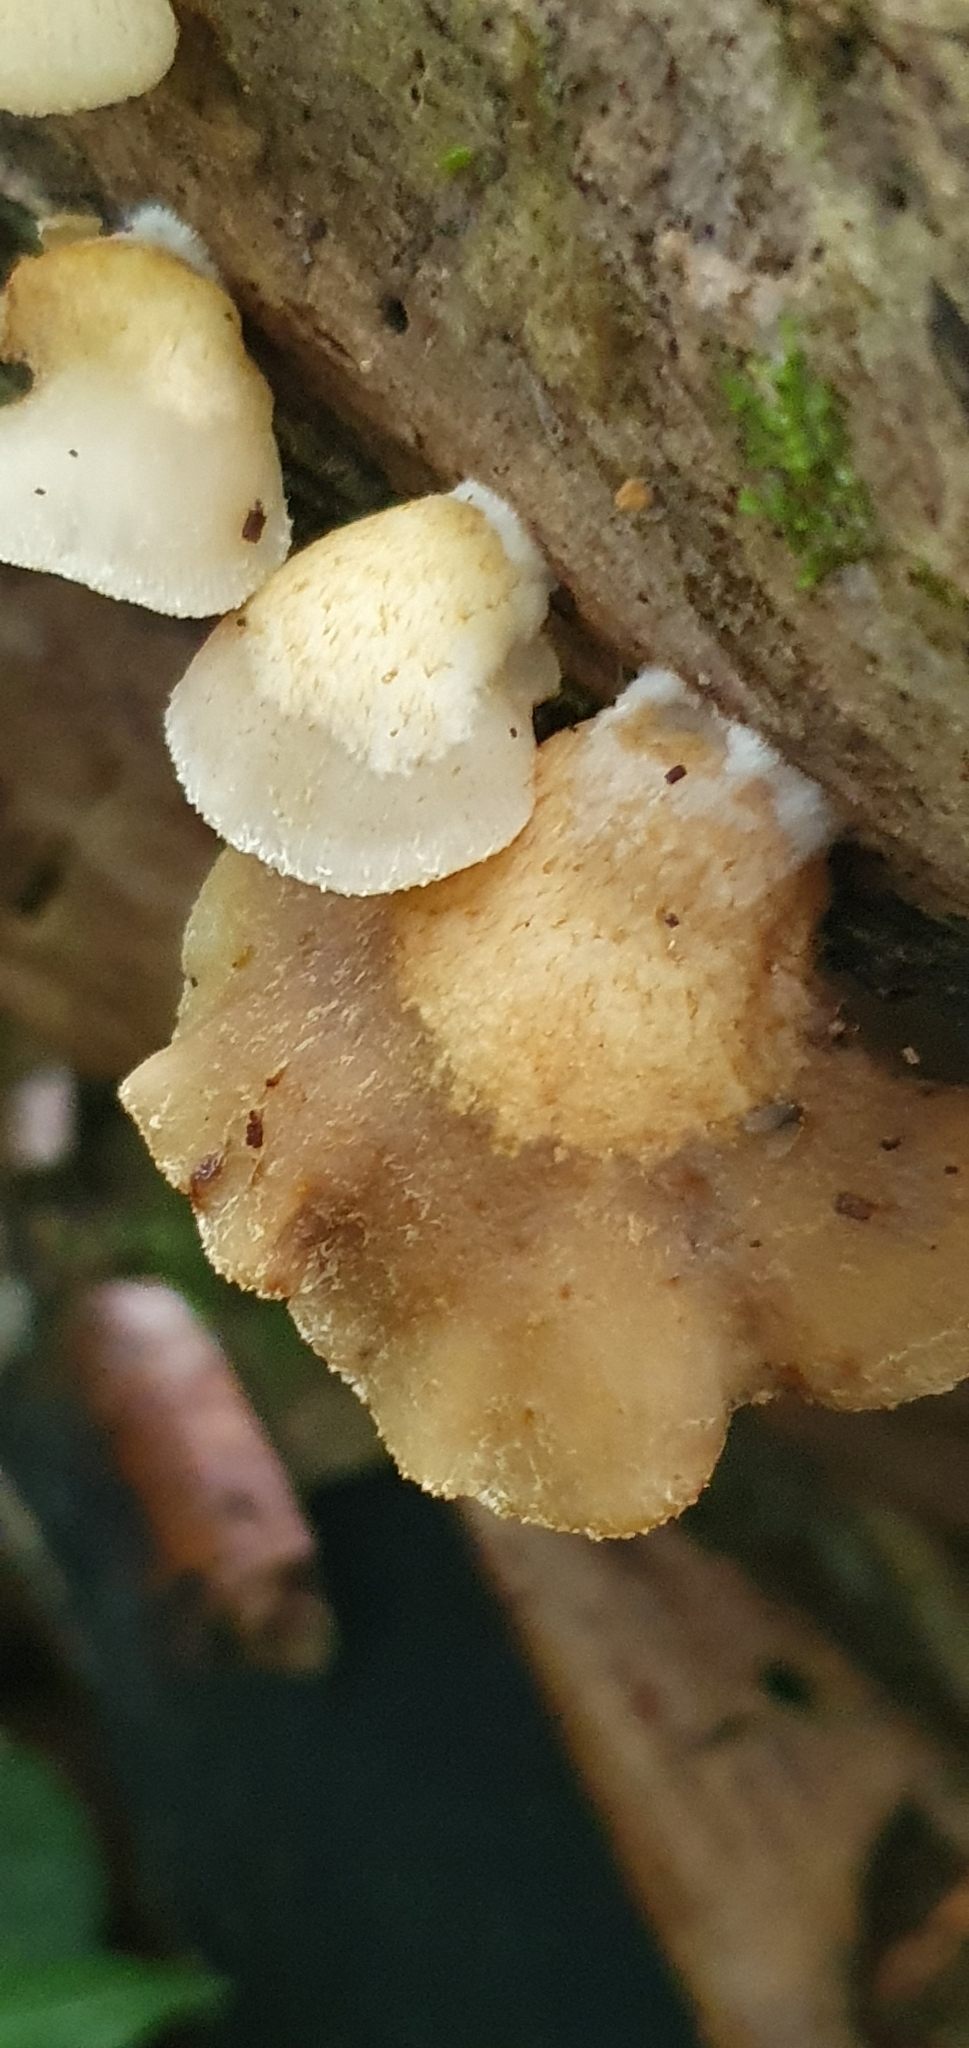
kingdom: Fungi
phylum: Basidiomycota
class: Agaricomycetes
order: Agaricales
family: Crepidotaceae
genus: Crepidotus
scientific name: Crepidotus mollis
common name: Peeling oysterling
